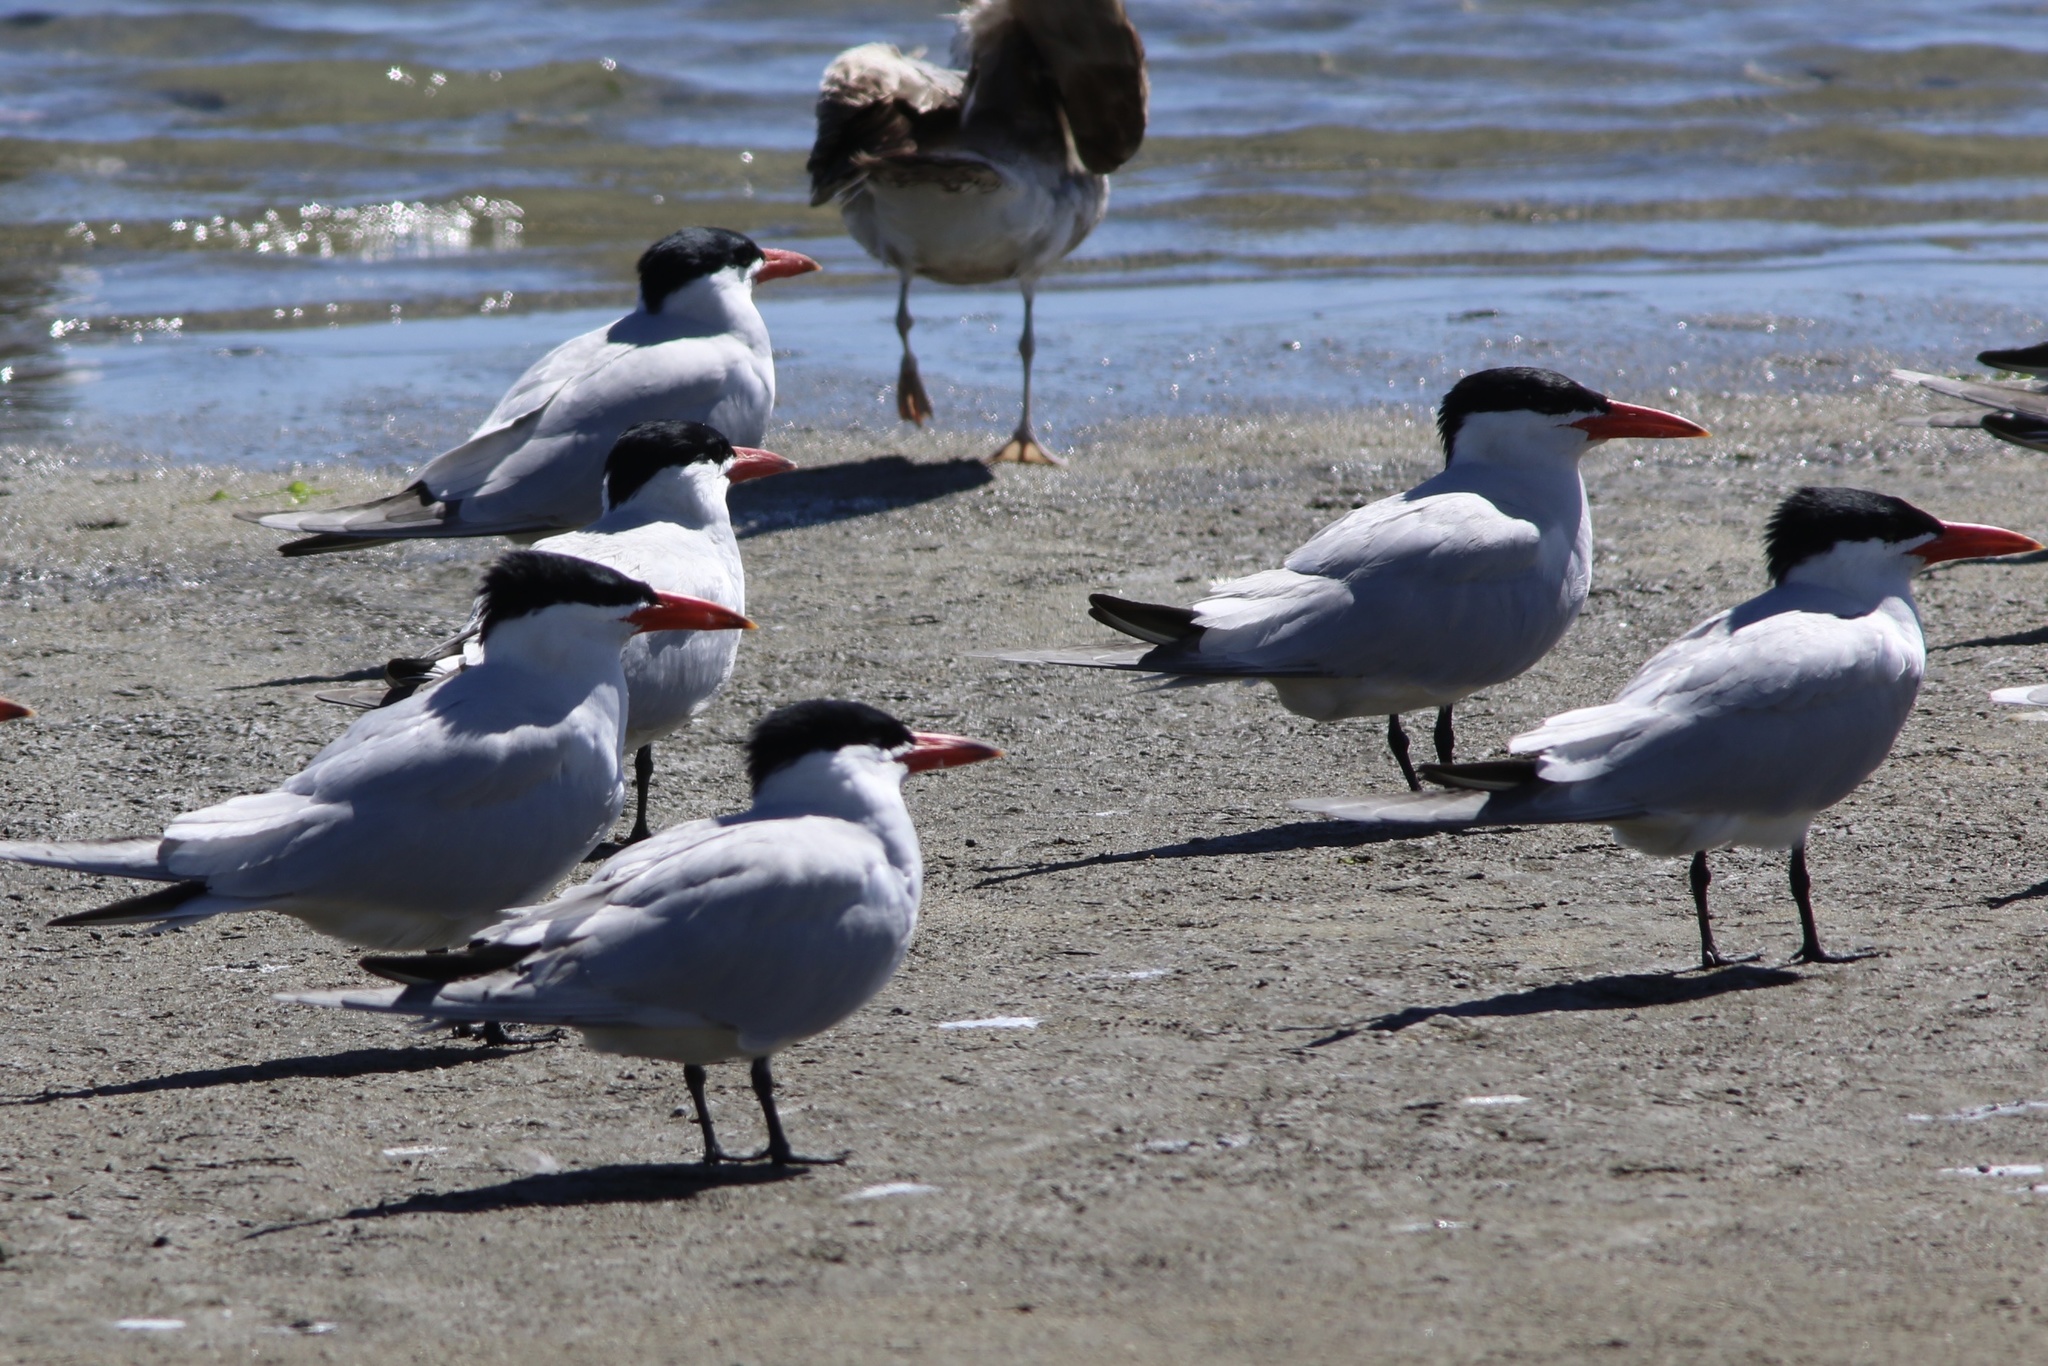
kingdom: Animalia
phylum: Chordata
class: Aves
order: Charadriiformes
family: Laridae
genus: Hydroprogne
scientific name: Hydroprogne caspia
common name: Caspian tern
